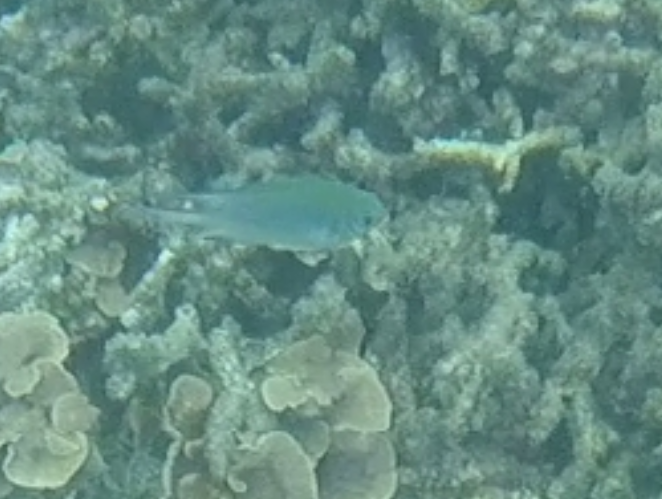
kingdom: Animalia
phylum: Chordata
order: Perciformes
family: Pomacentridae
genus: Amblyglyphidodon
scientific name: Amblyglyphidodon indicus
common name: Maldives damselfish
